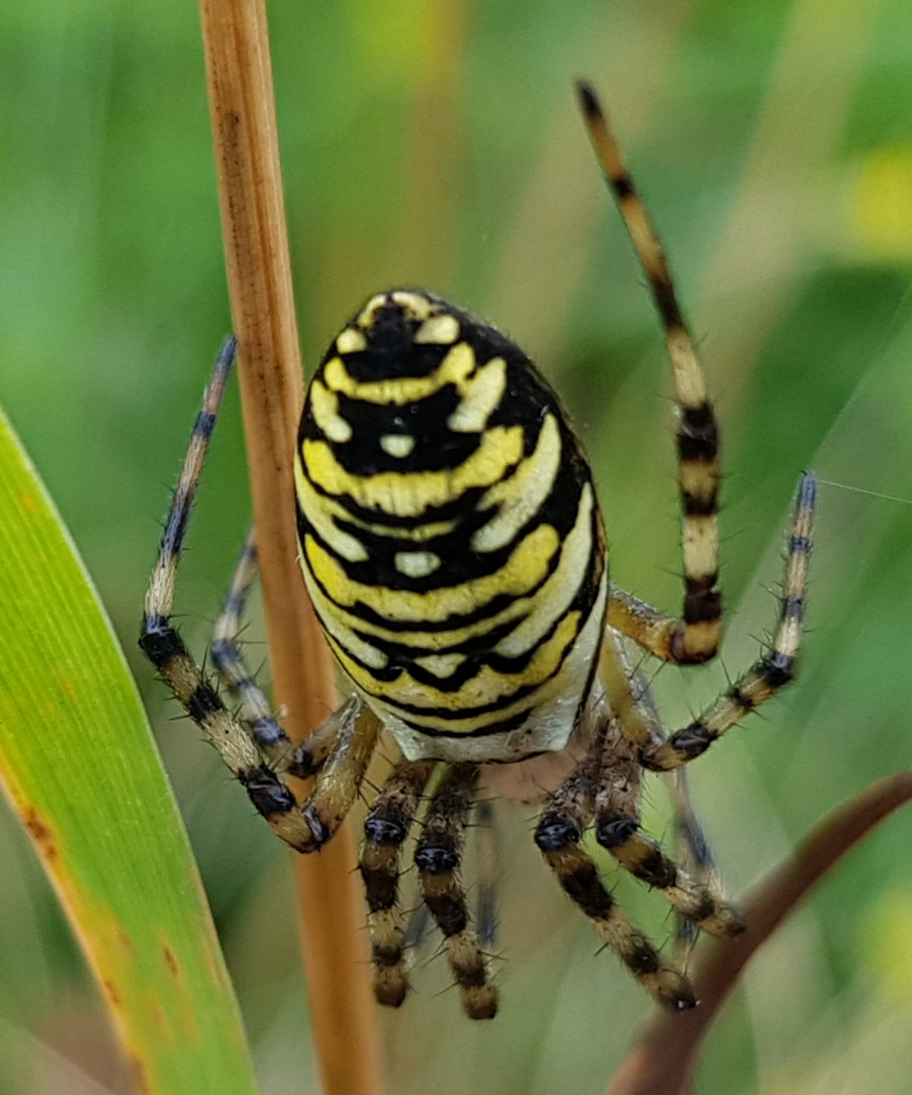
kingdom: Animalia
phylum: Arthropoda
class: Arachnida
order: Araneae
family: Araneidae
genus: Argiope
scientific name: Argiope bruennichi
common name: Wasp spider
